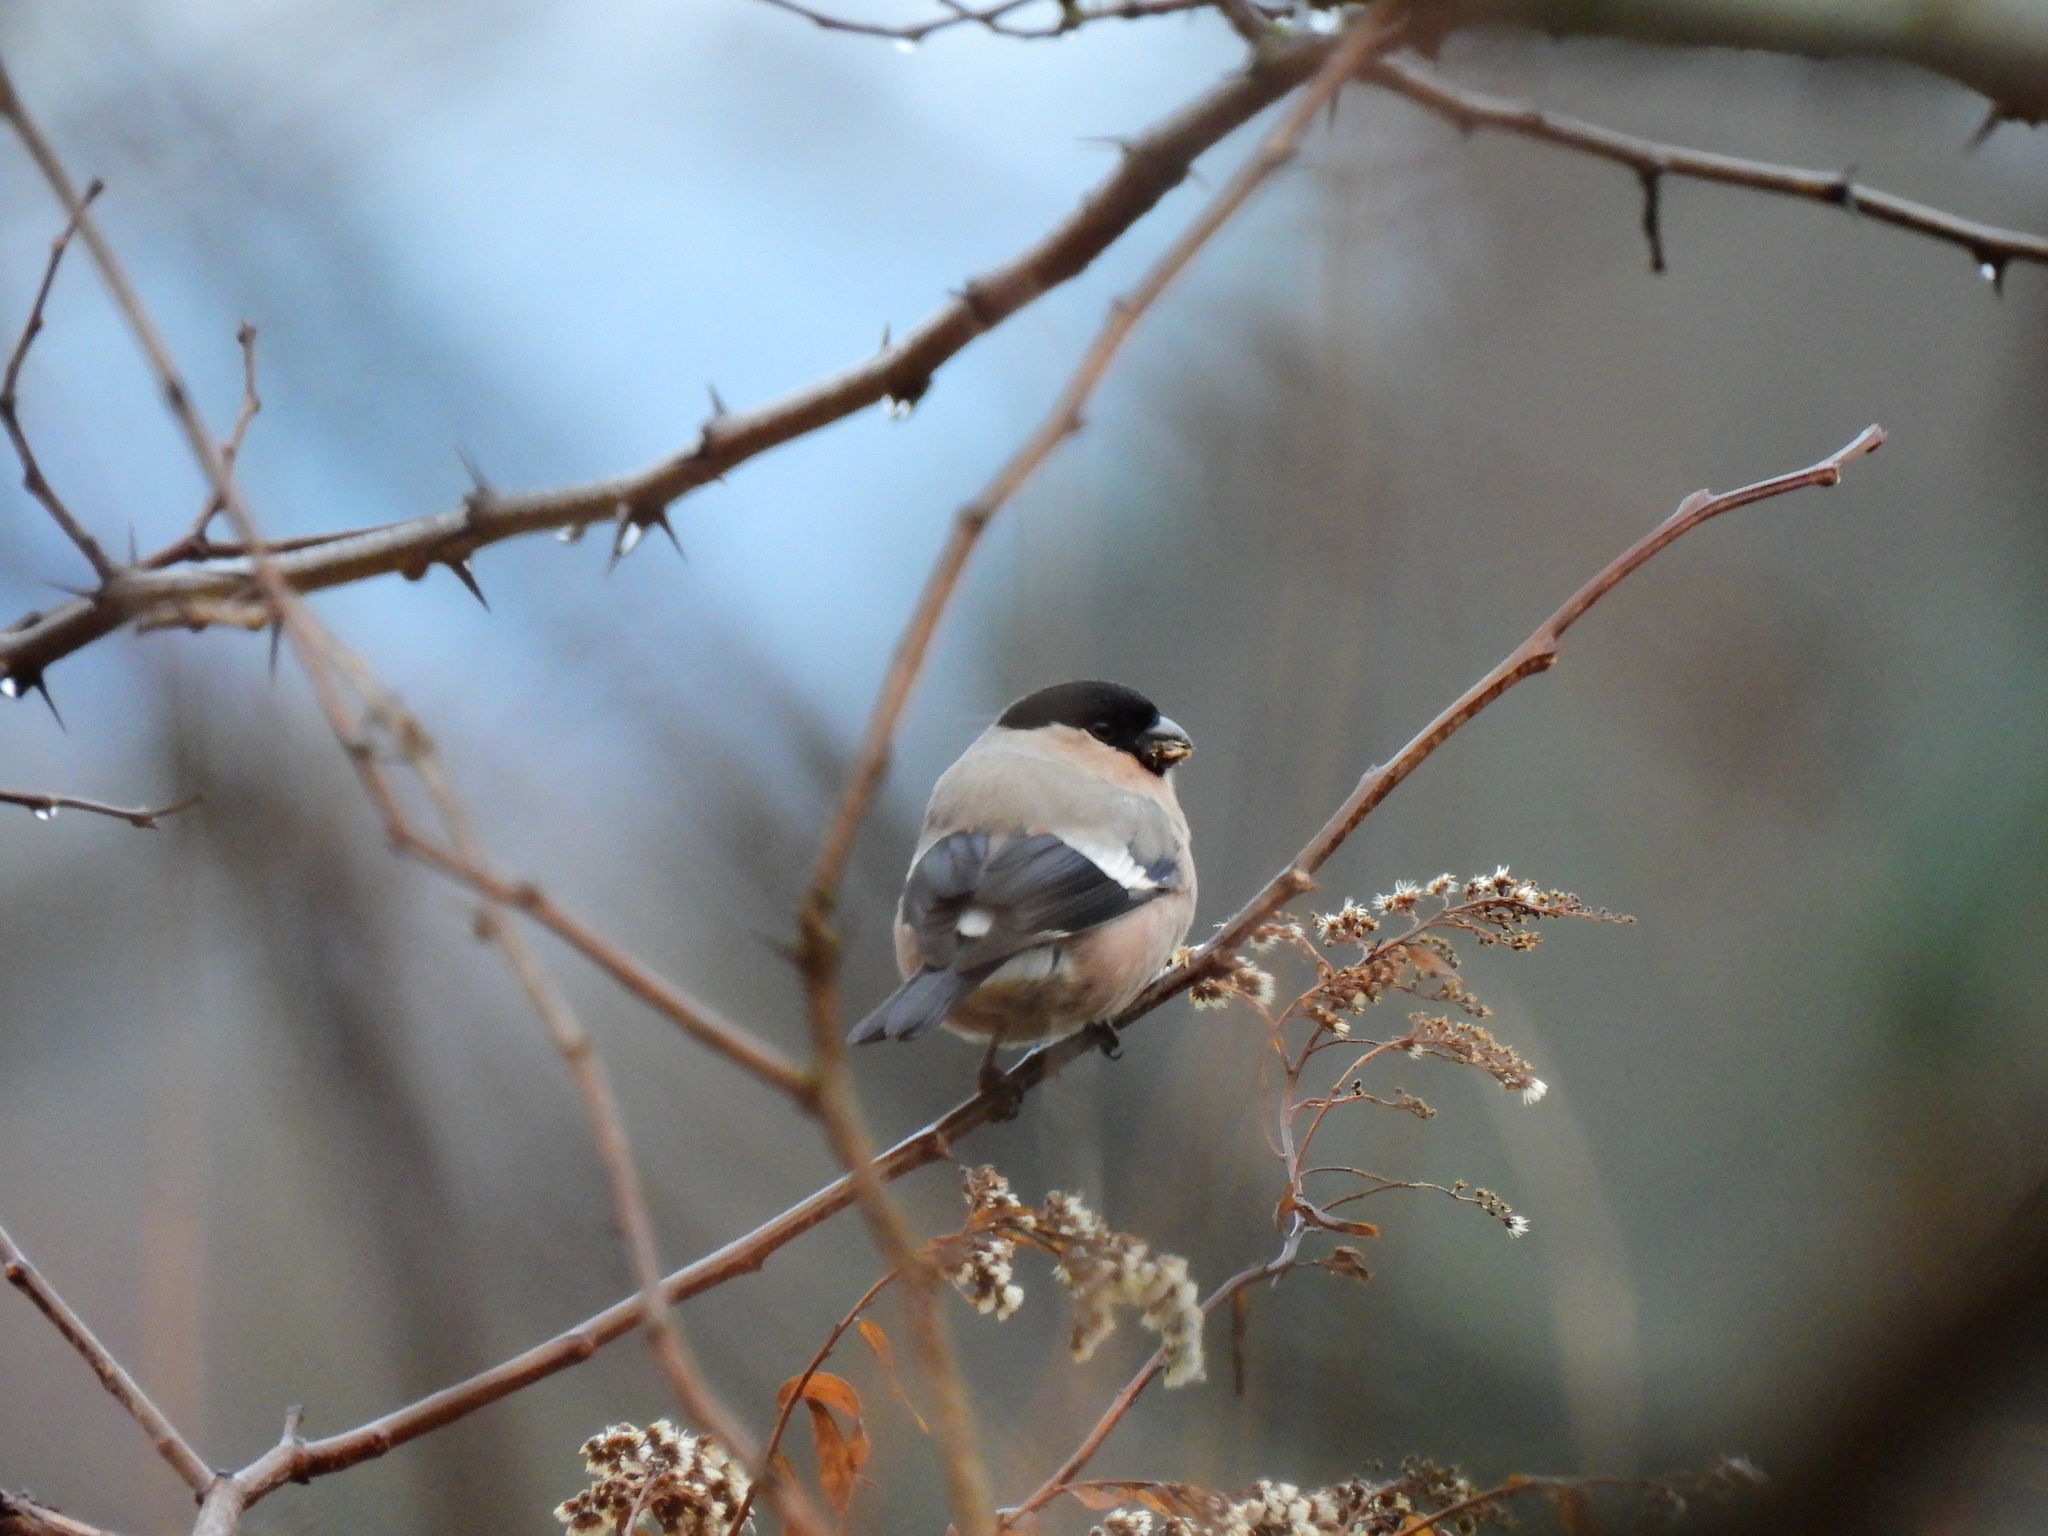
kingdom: Animalia
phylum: Chordata
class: Aves
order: Passeriformes
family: Fringillidae
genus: Pyrrhula
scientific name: Pyrrhula pyrrhula
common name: Eurasian bullfinch
